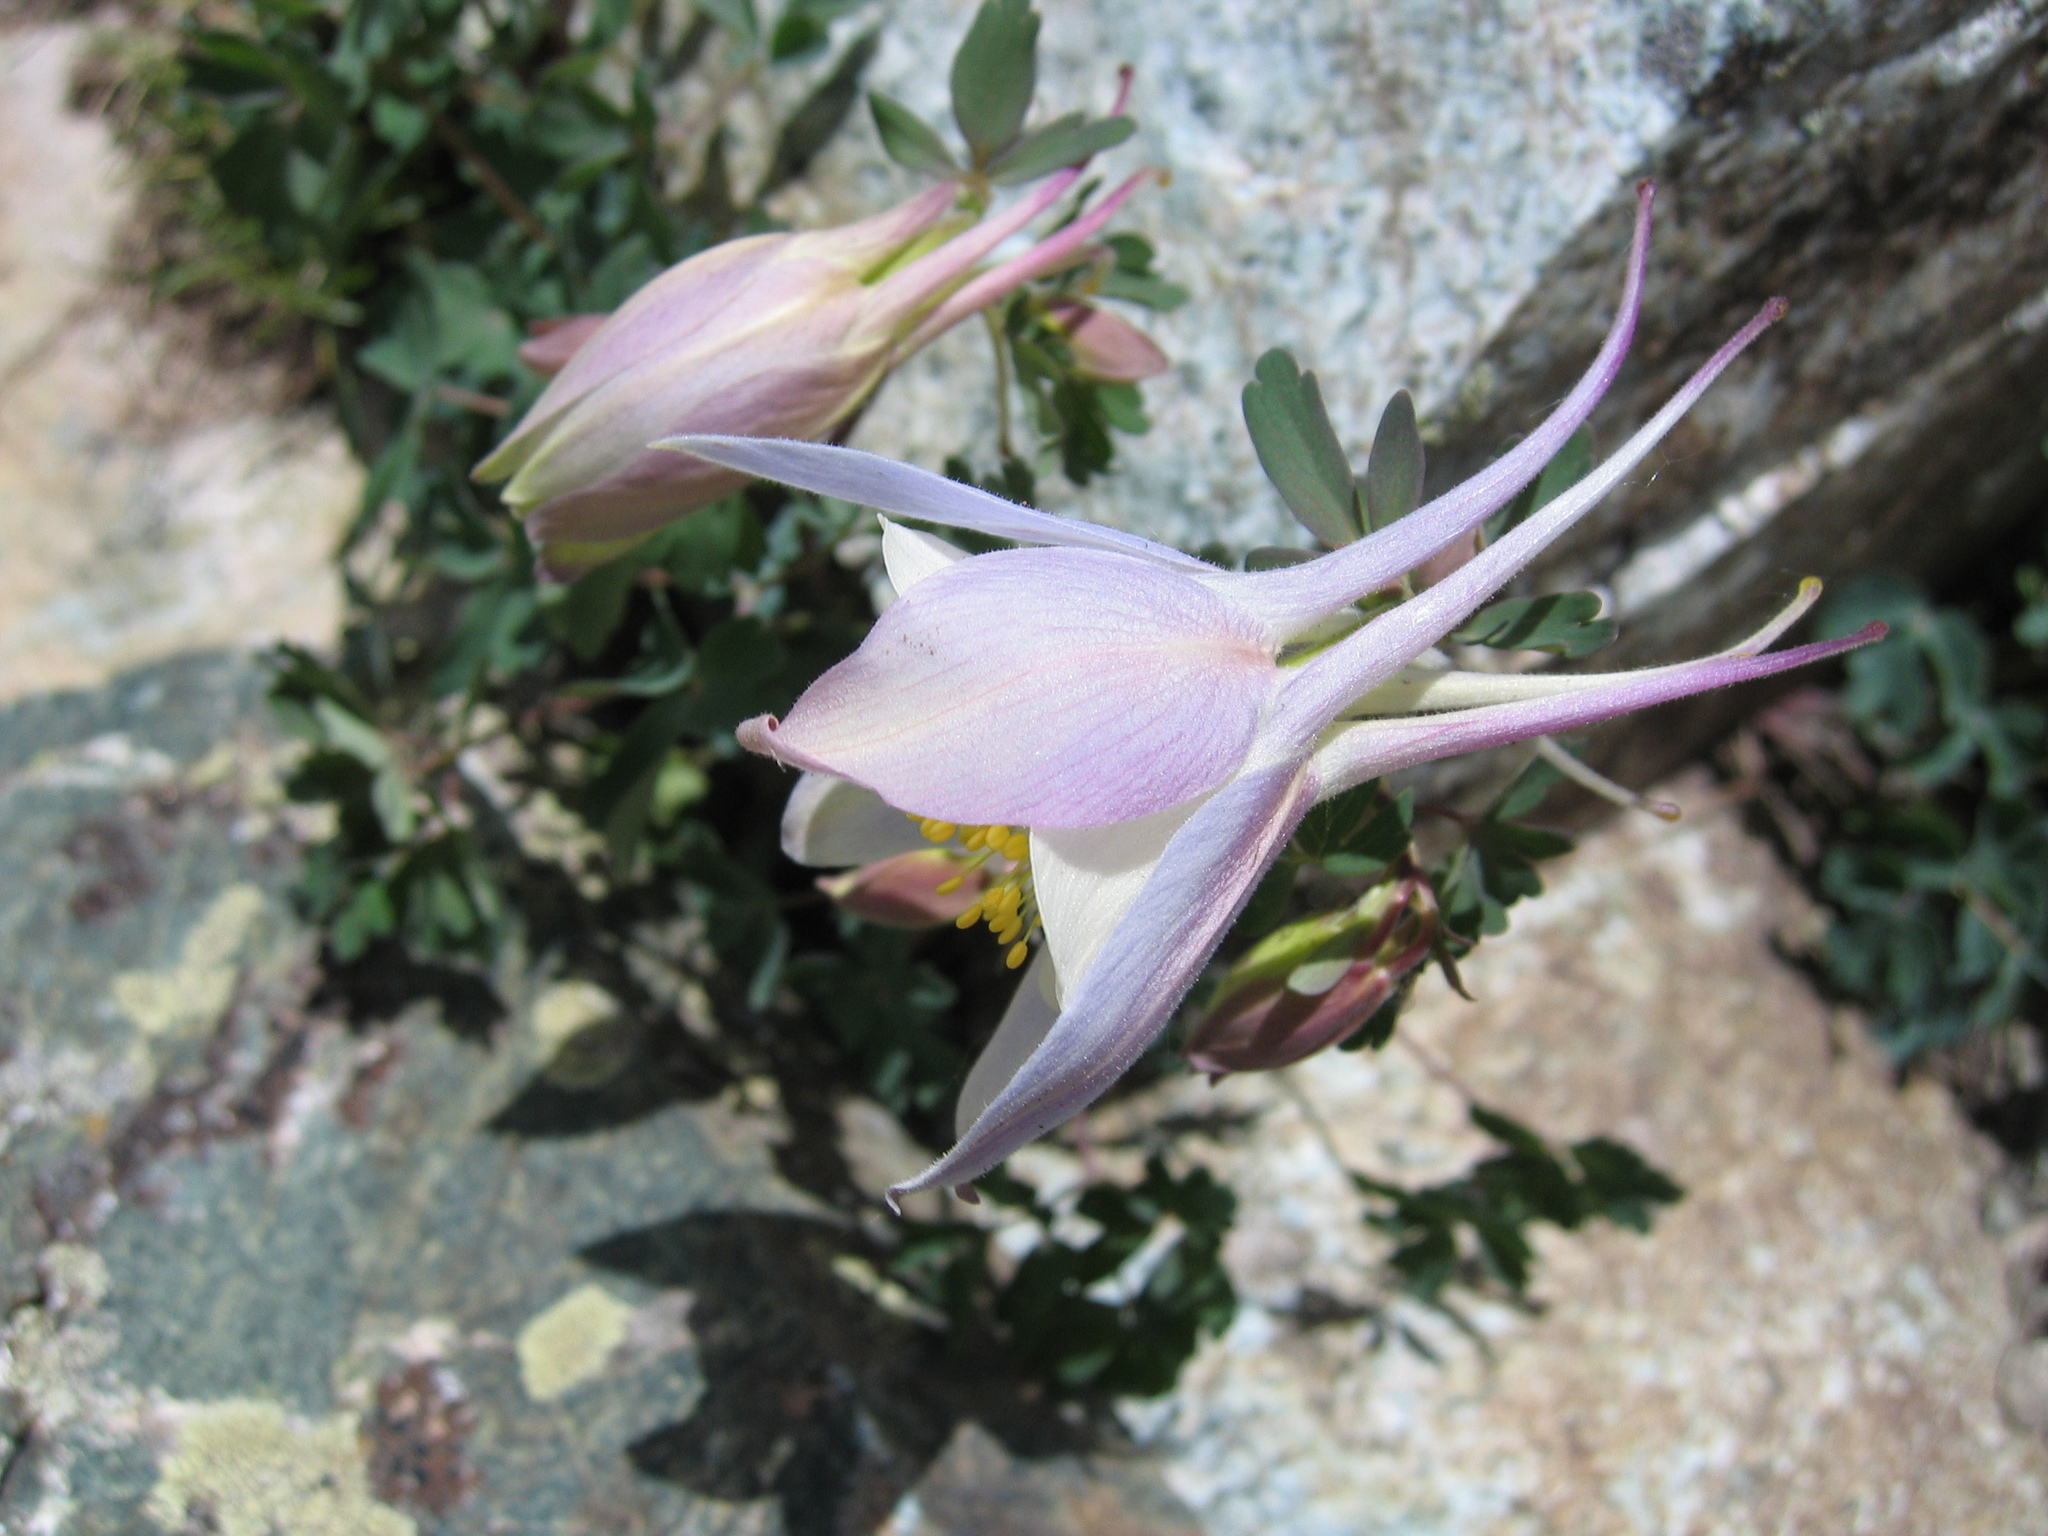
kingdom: Plantae
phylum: Tracheophyta
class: Magnoliopsida
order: Ranunculales
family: Ranunculaceae
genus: Aquilegia
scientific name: Aquilegia coerulea
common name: Rocky mountain columbine
